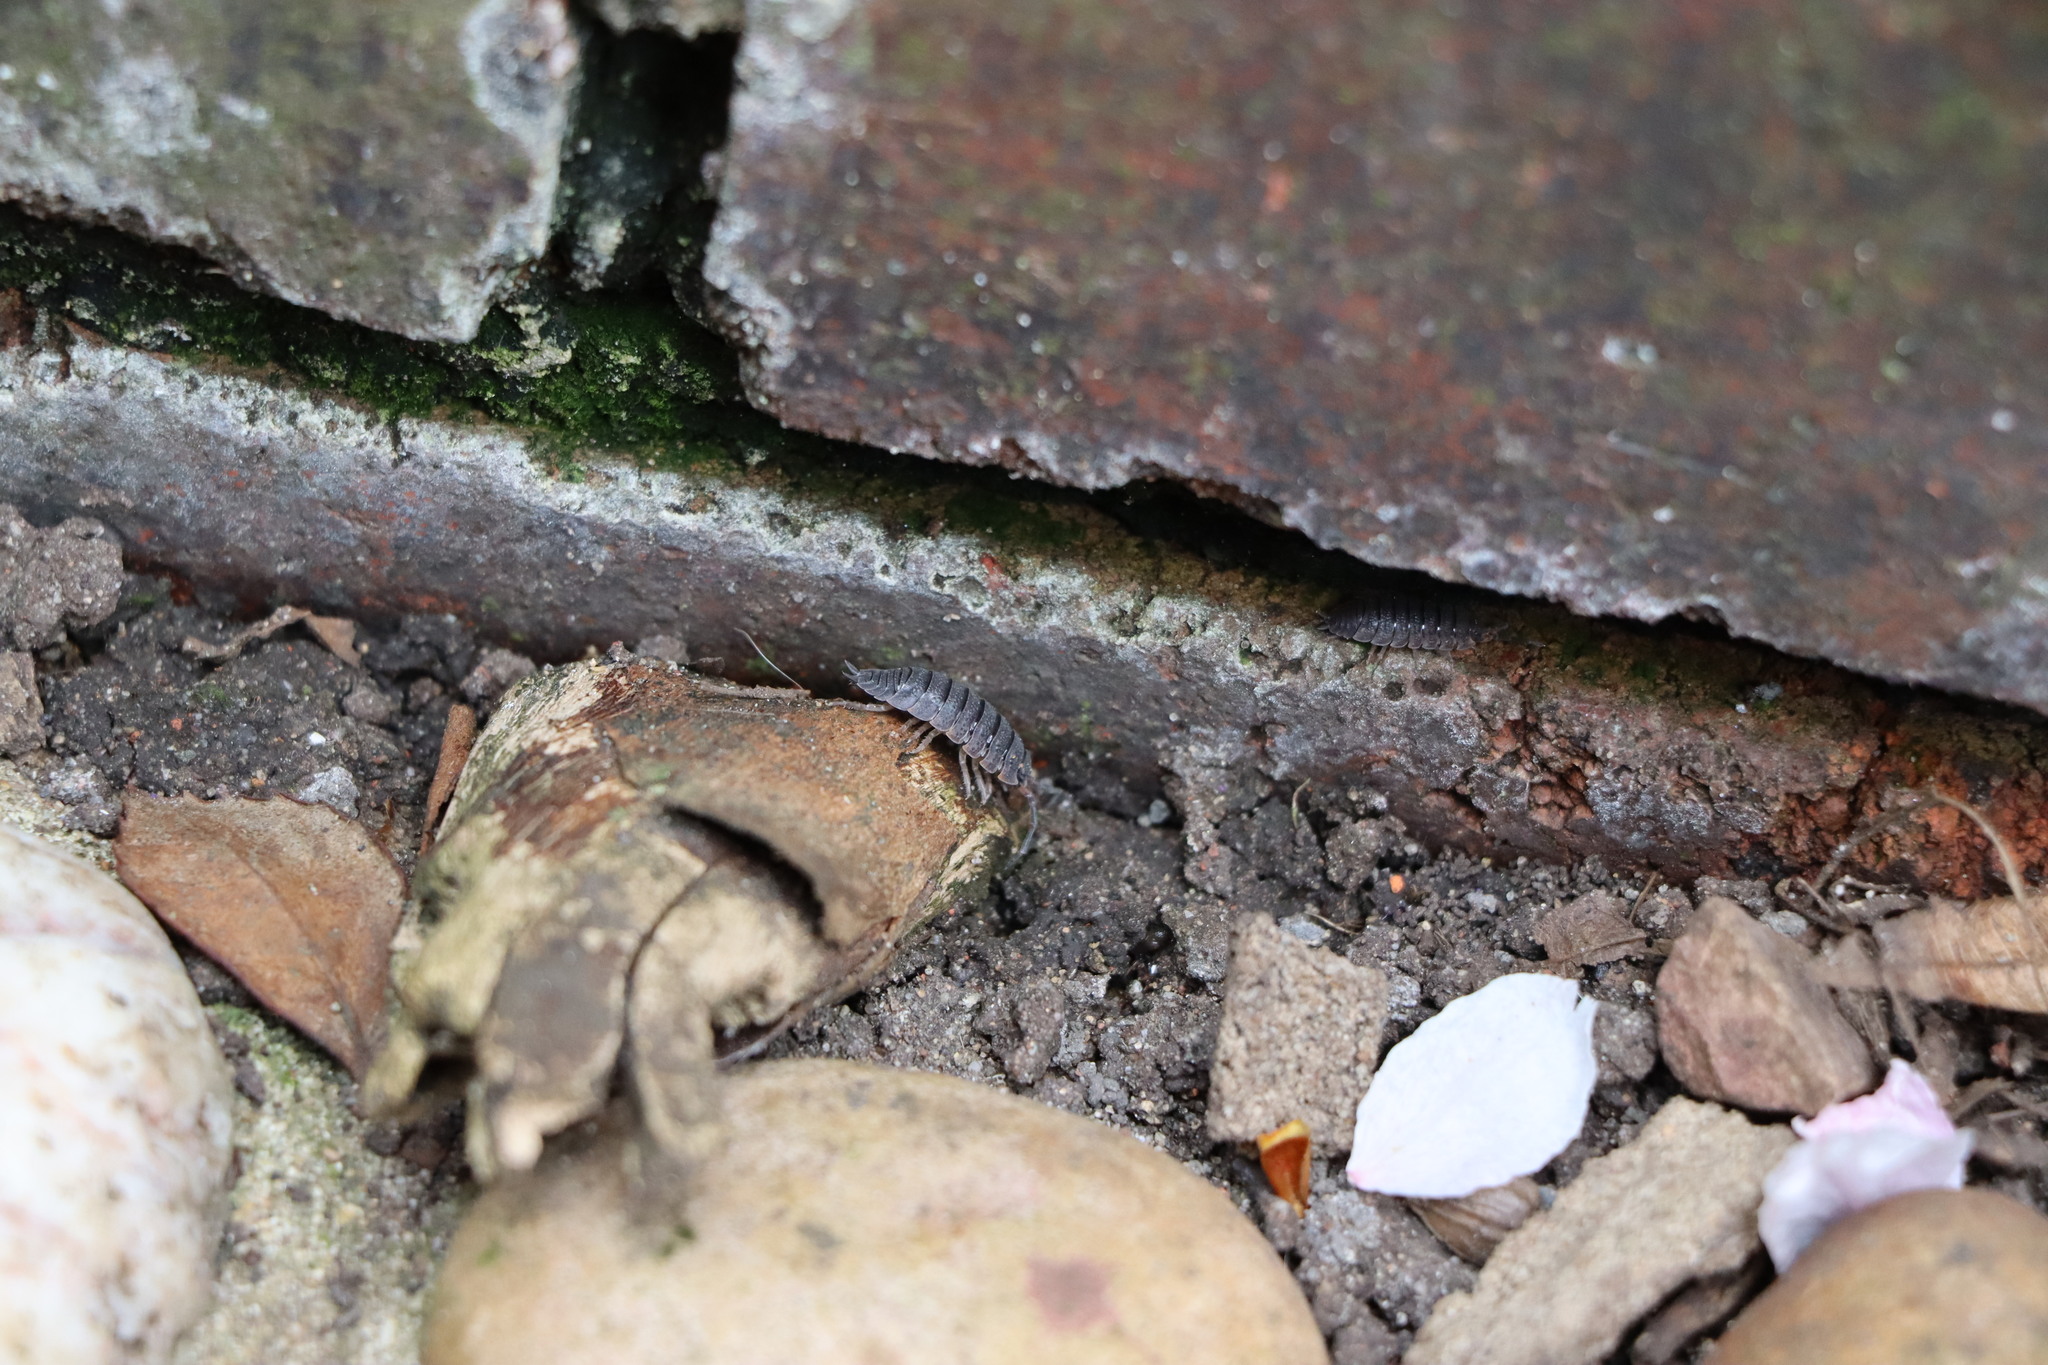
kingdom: Animalia
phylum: Arthropoda
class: Malacostraca
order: Isopoda
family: Porcellionidae
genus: Porcellio
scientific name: Porcellio scaber
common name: Common rough woodlouse
